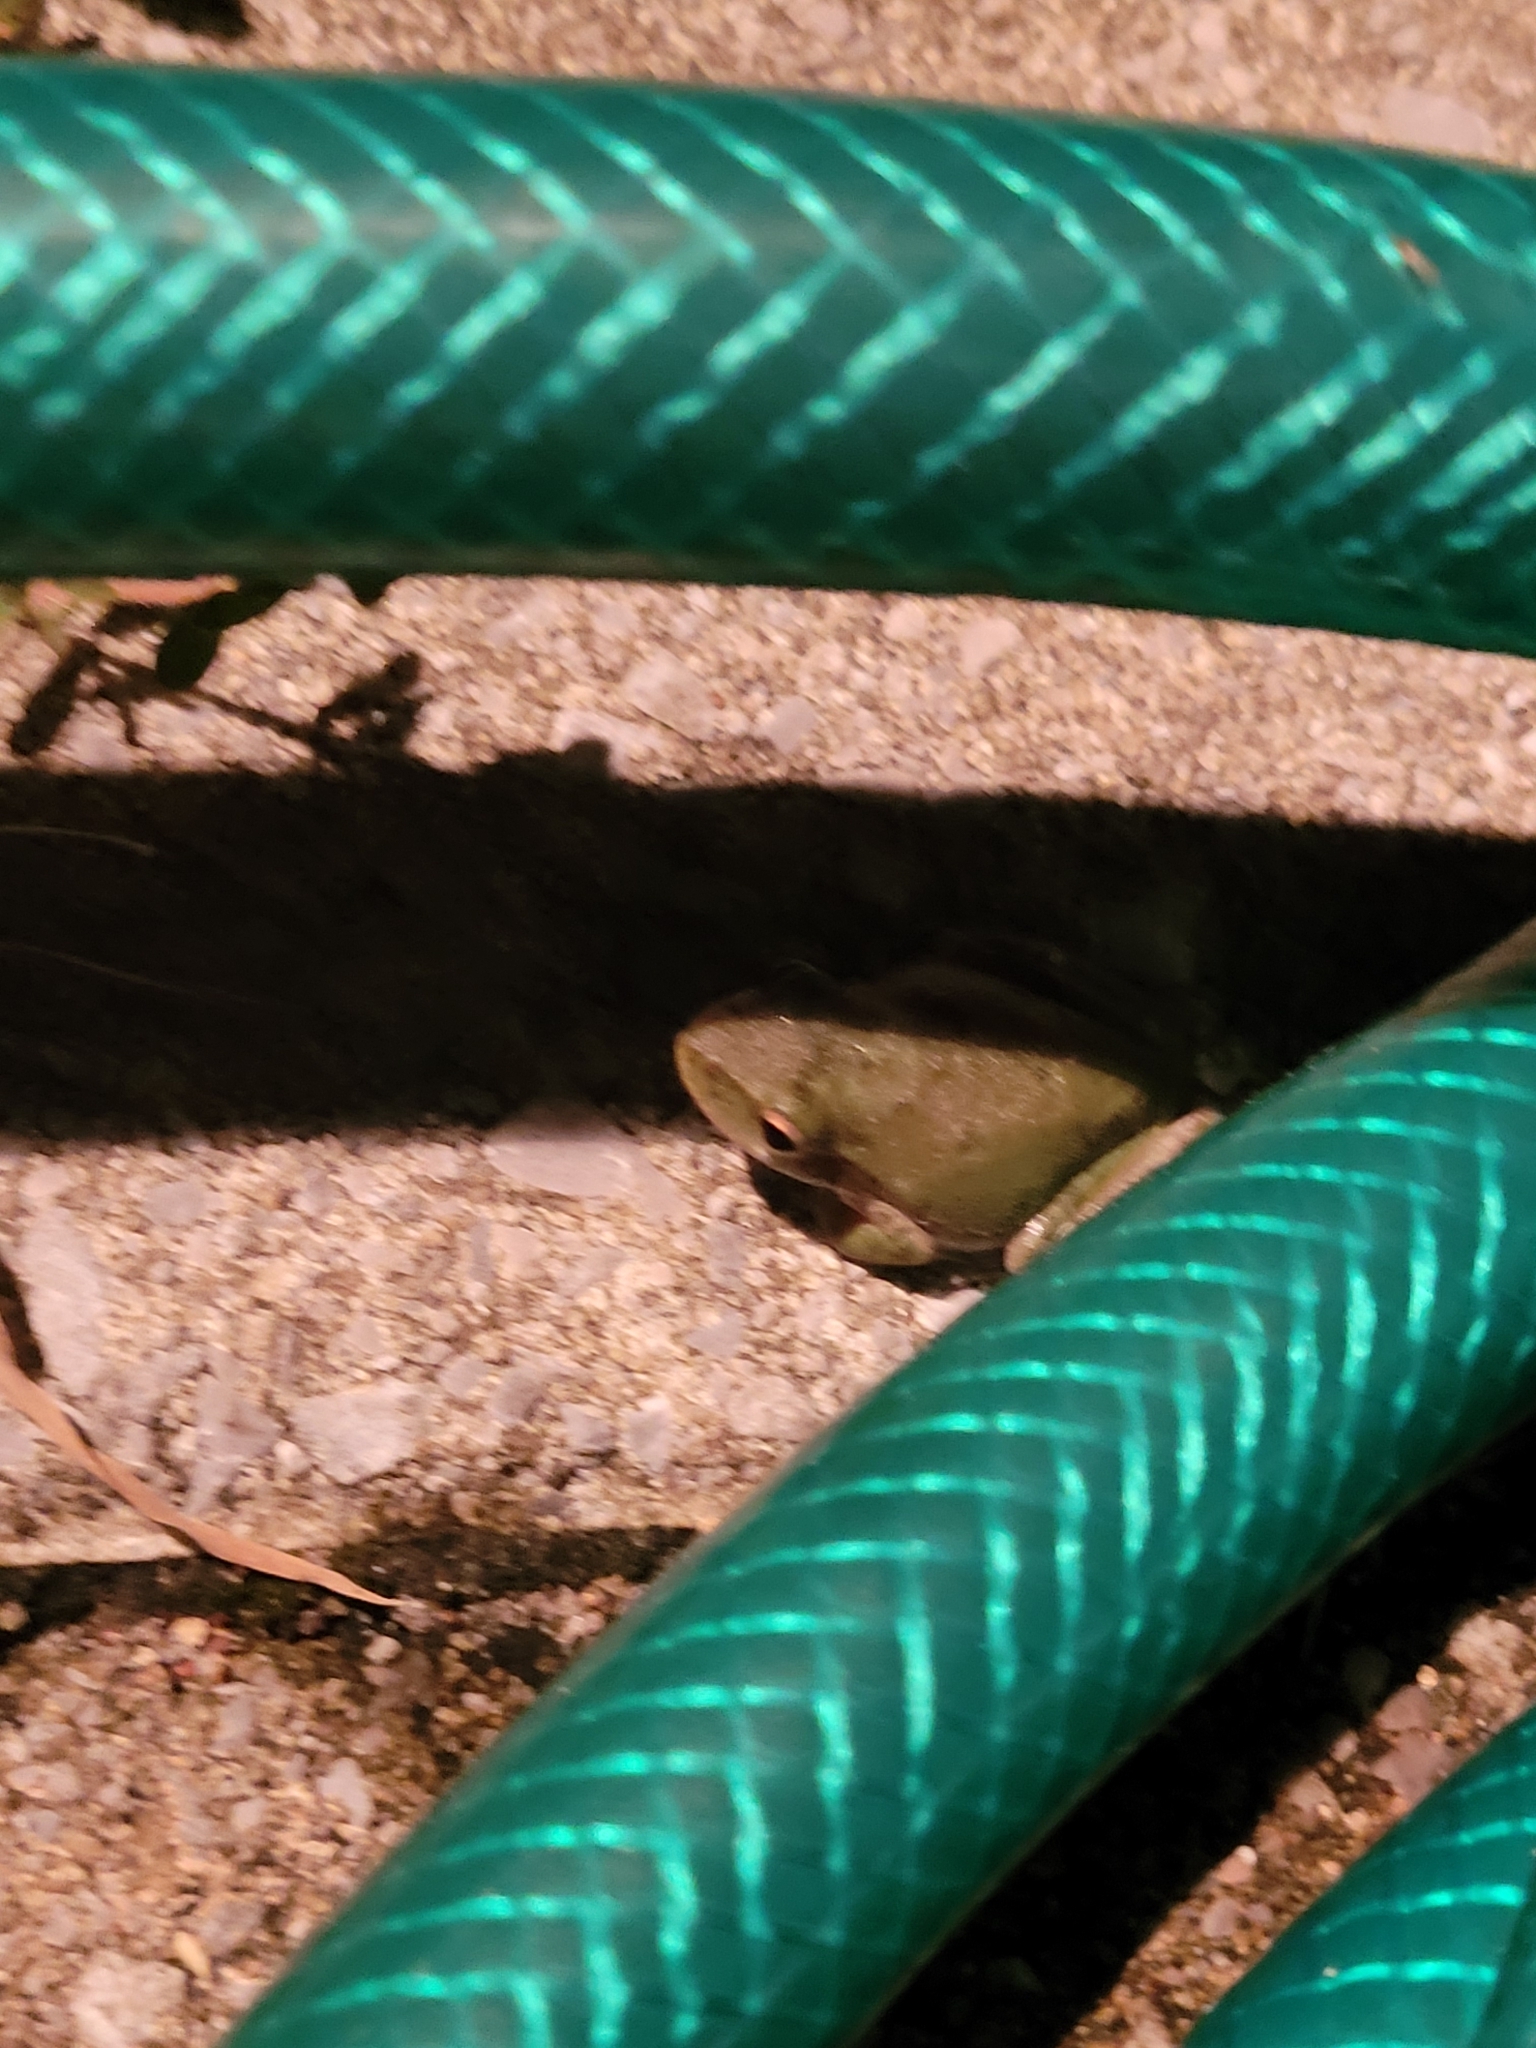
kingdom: Animalia
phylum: Chordata
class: Amphibia
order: Anura
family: Hylidae
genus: Dryophytes
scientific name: Dryophytes squirellus
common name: Squirrel treefrog
